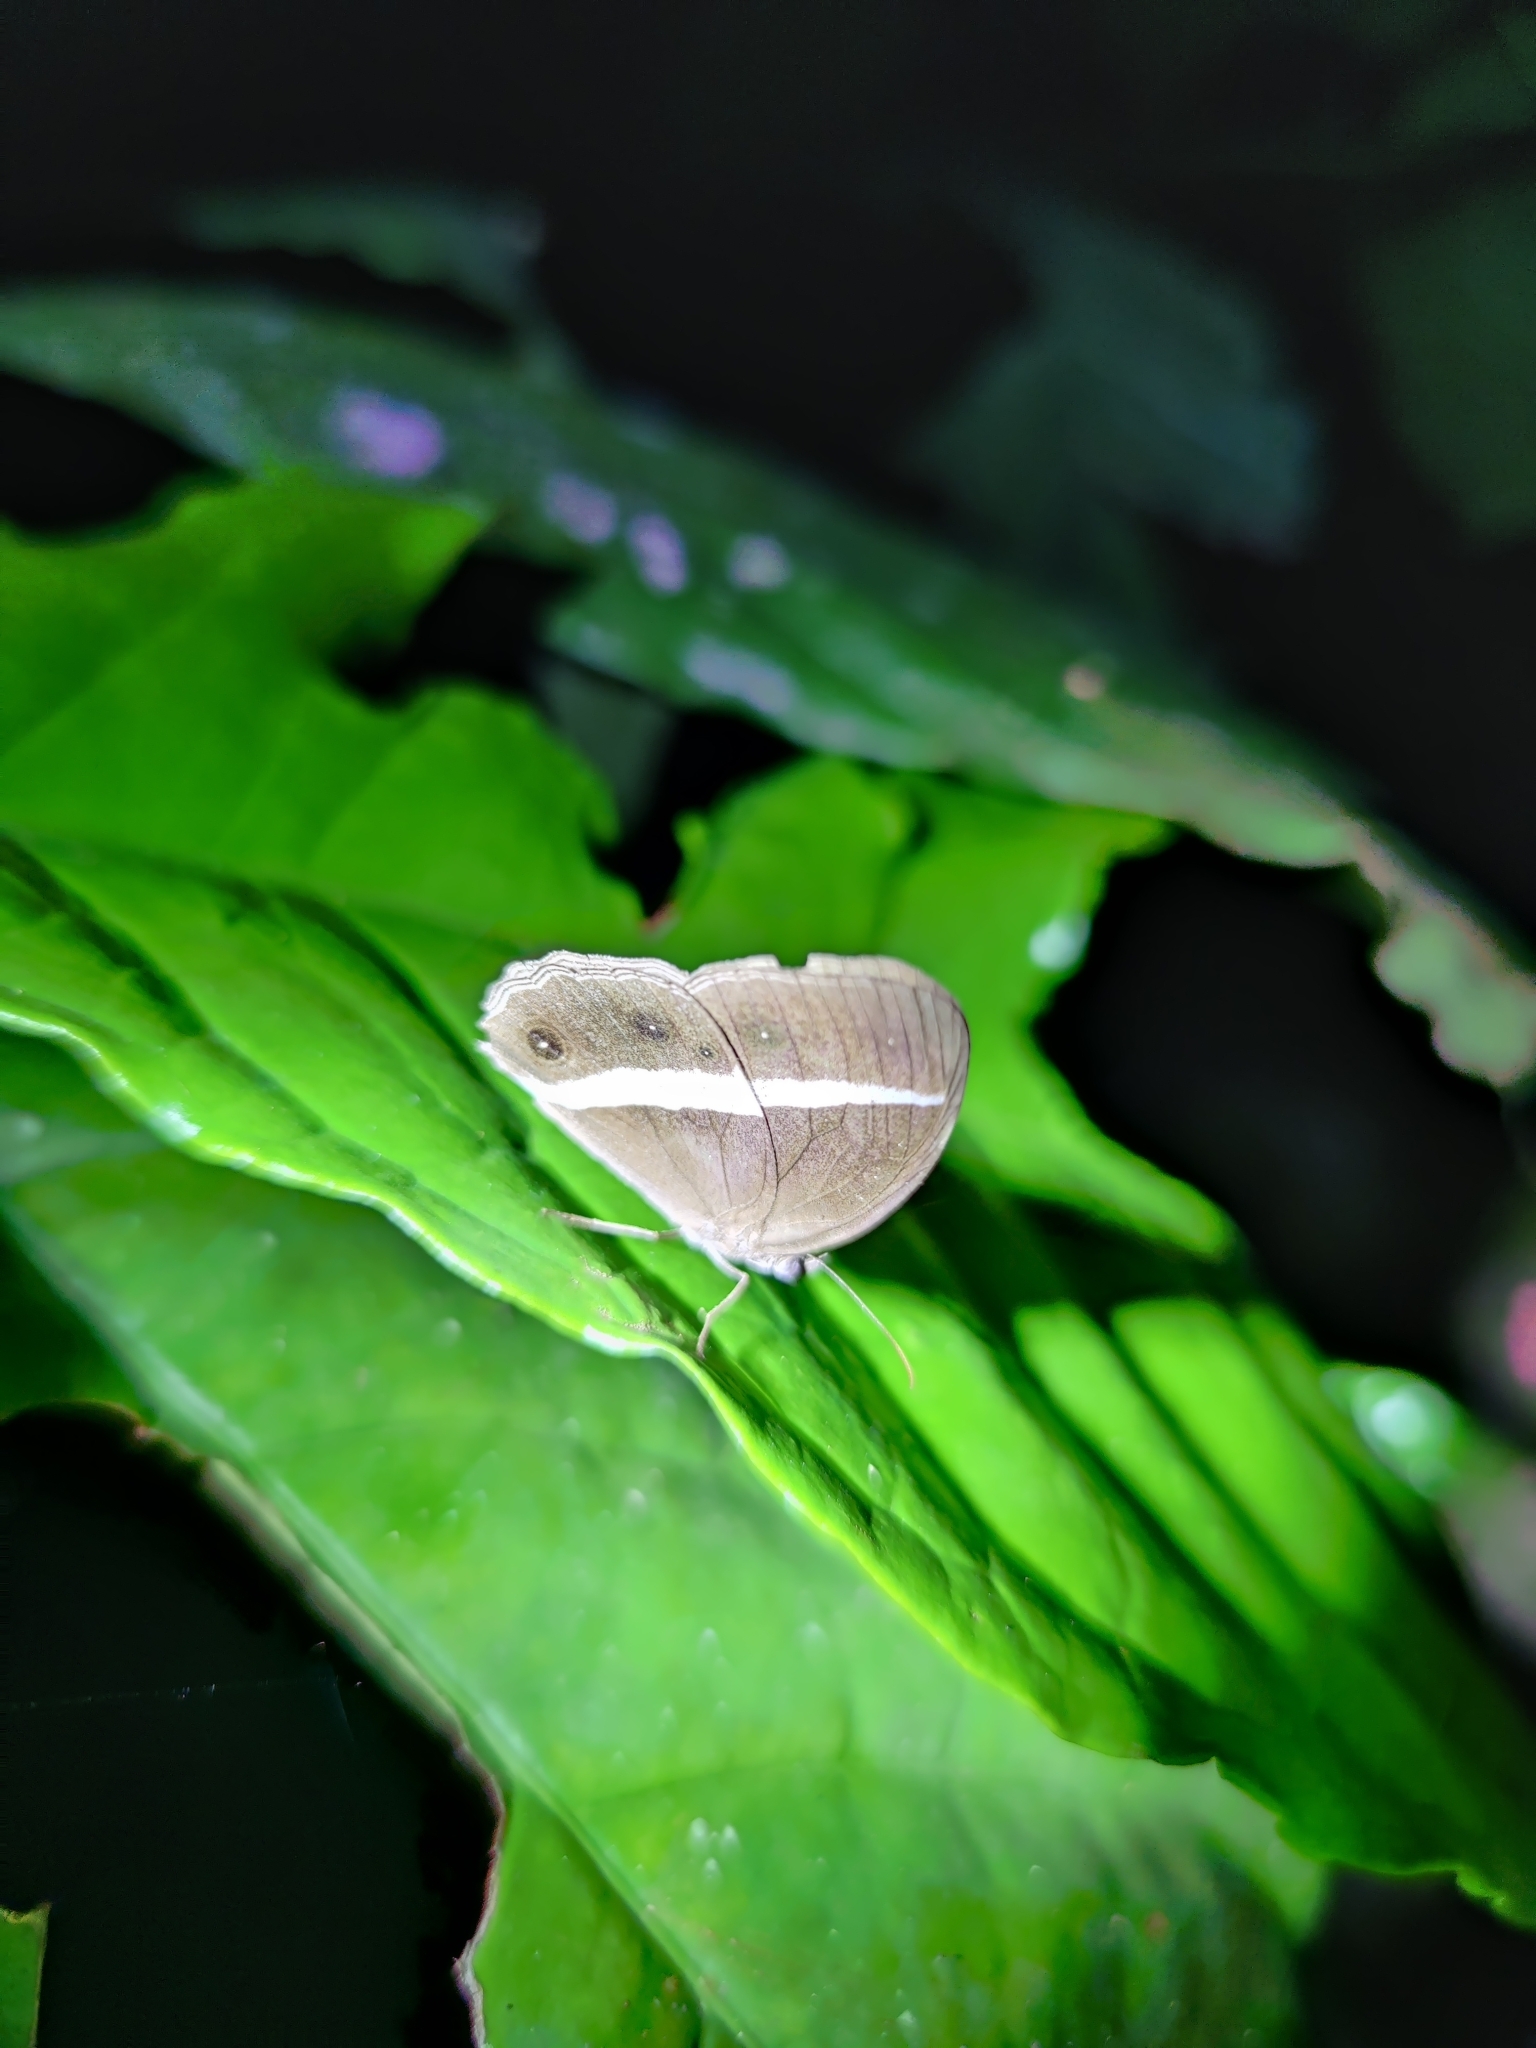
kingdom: Animalia
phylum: Arthropoda
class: Insecta
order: Lepidoptera
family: Nymphalidae
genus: Orsotriaena
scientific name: Orsotriaena medus
